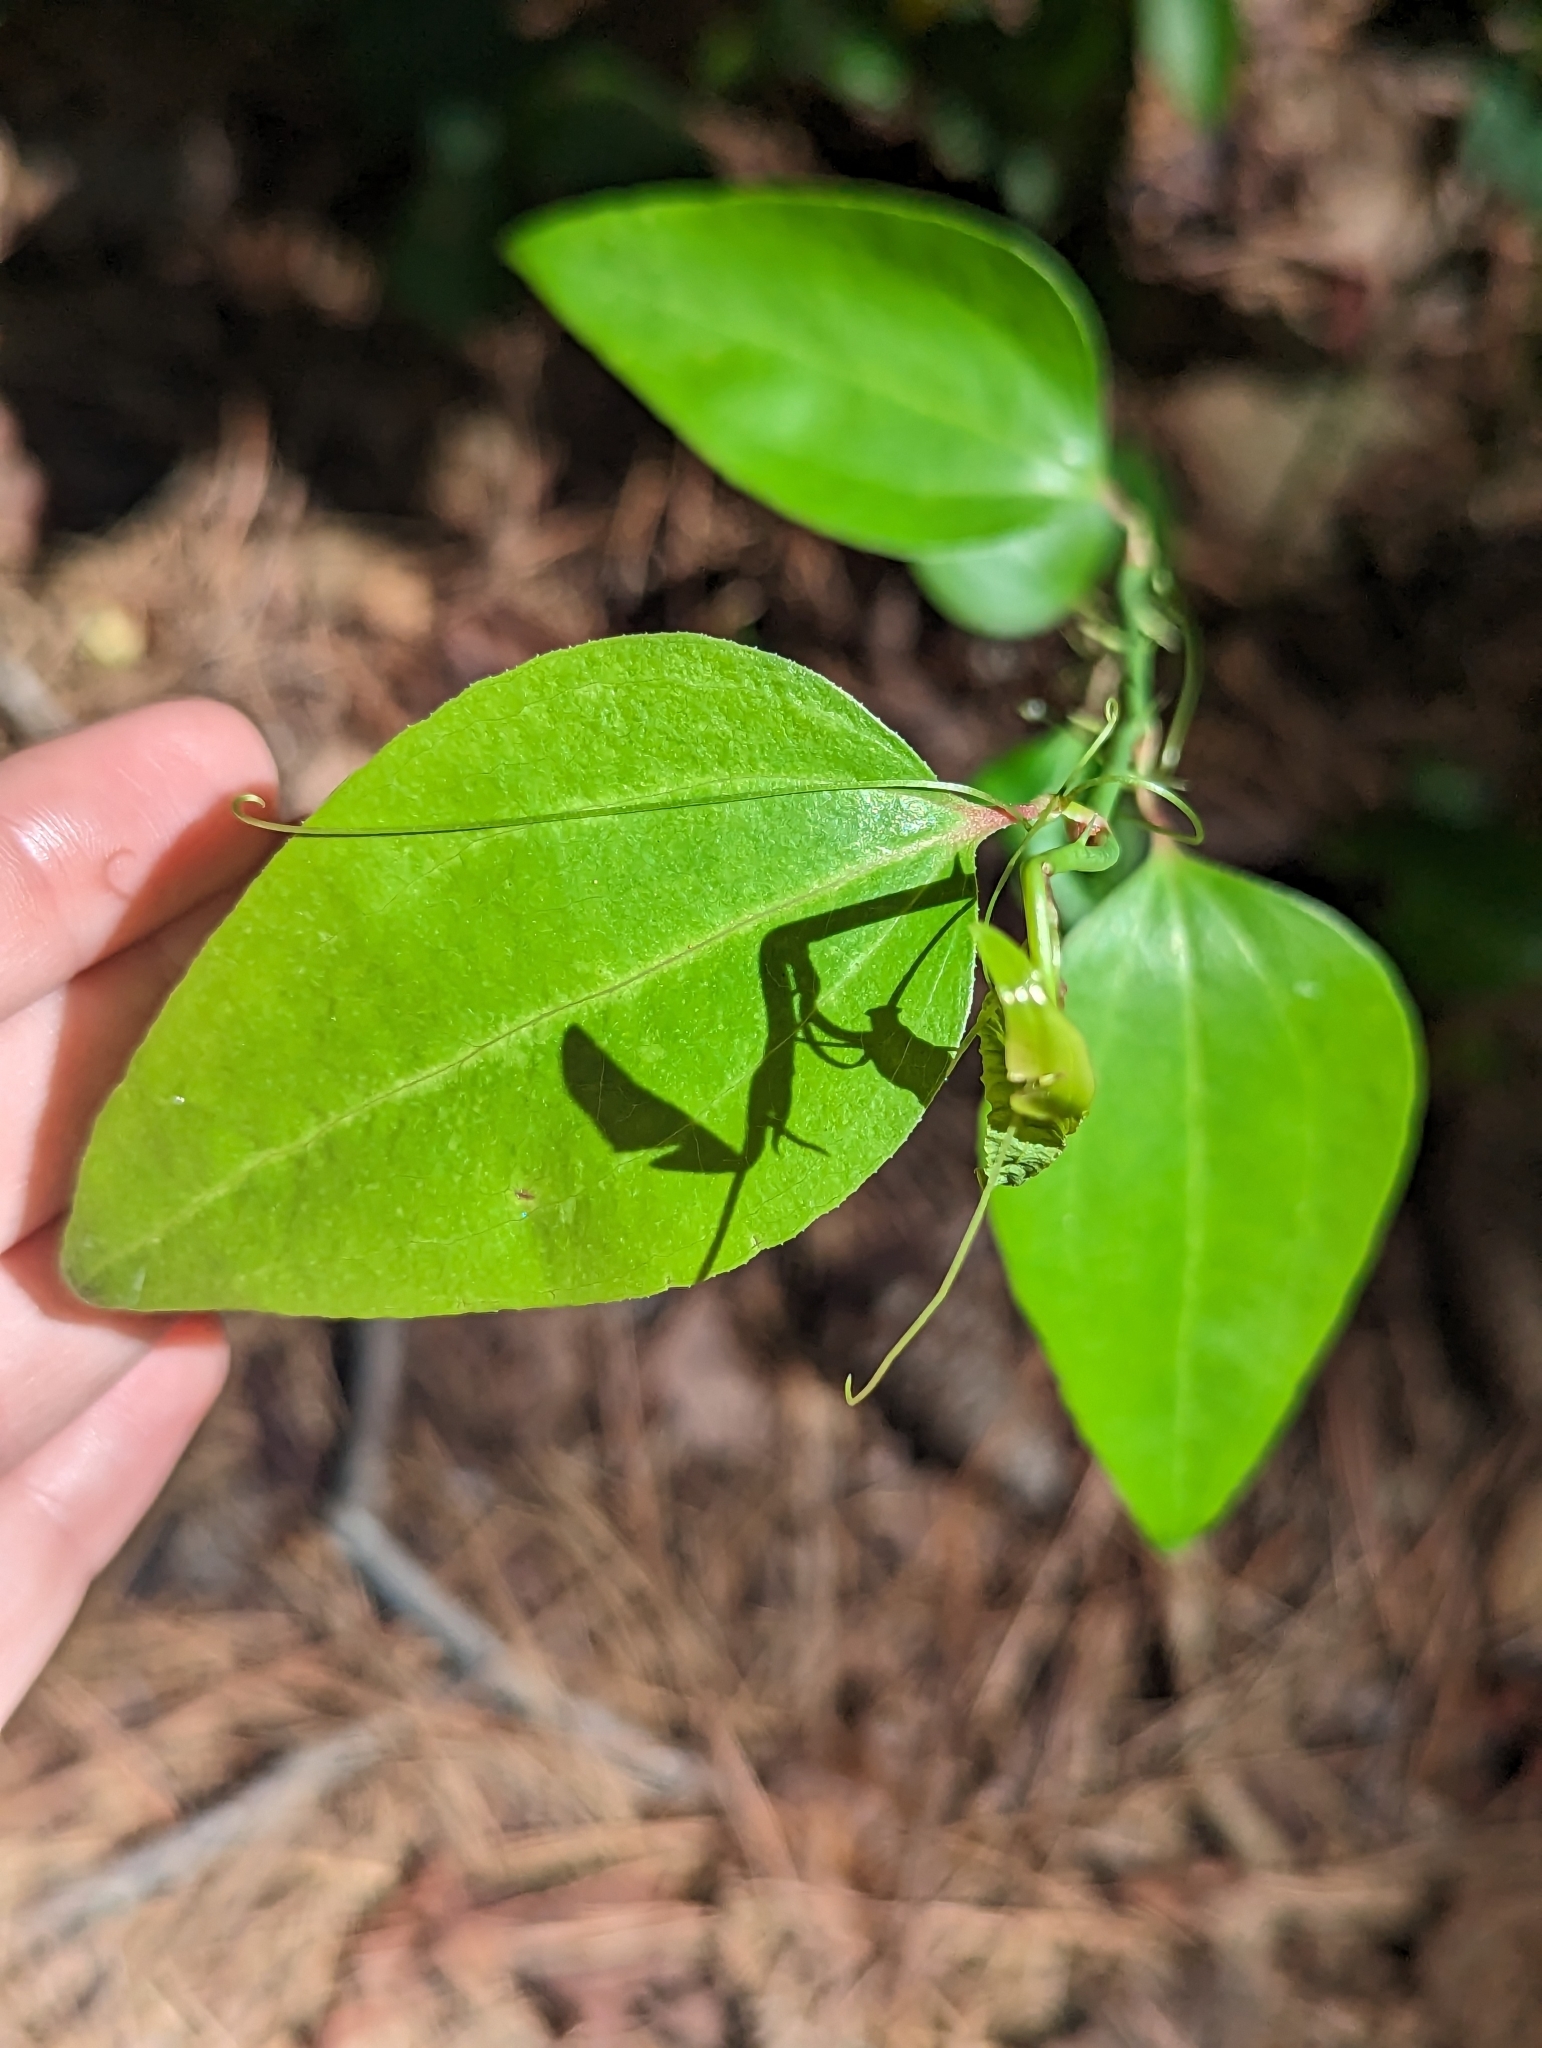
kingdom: Plantae
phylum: Tracheophyta
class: Liliopsida
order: Liliales
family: Smilacaceae
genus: Smilax
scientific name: Smilax rotundifolia
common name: Bullbriar
